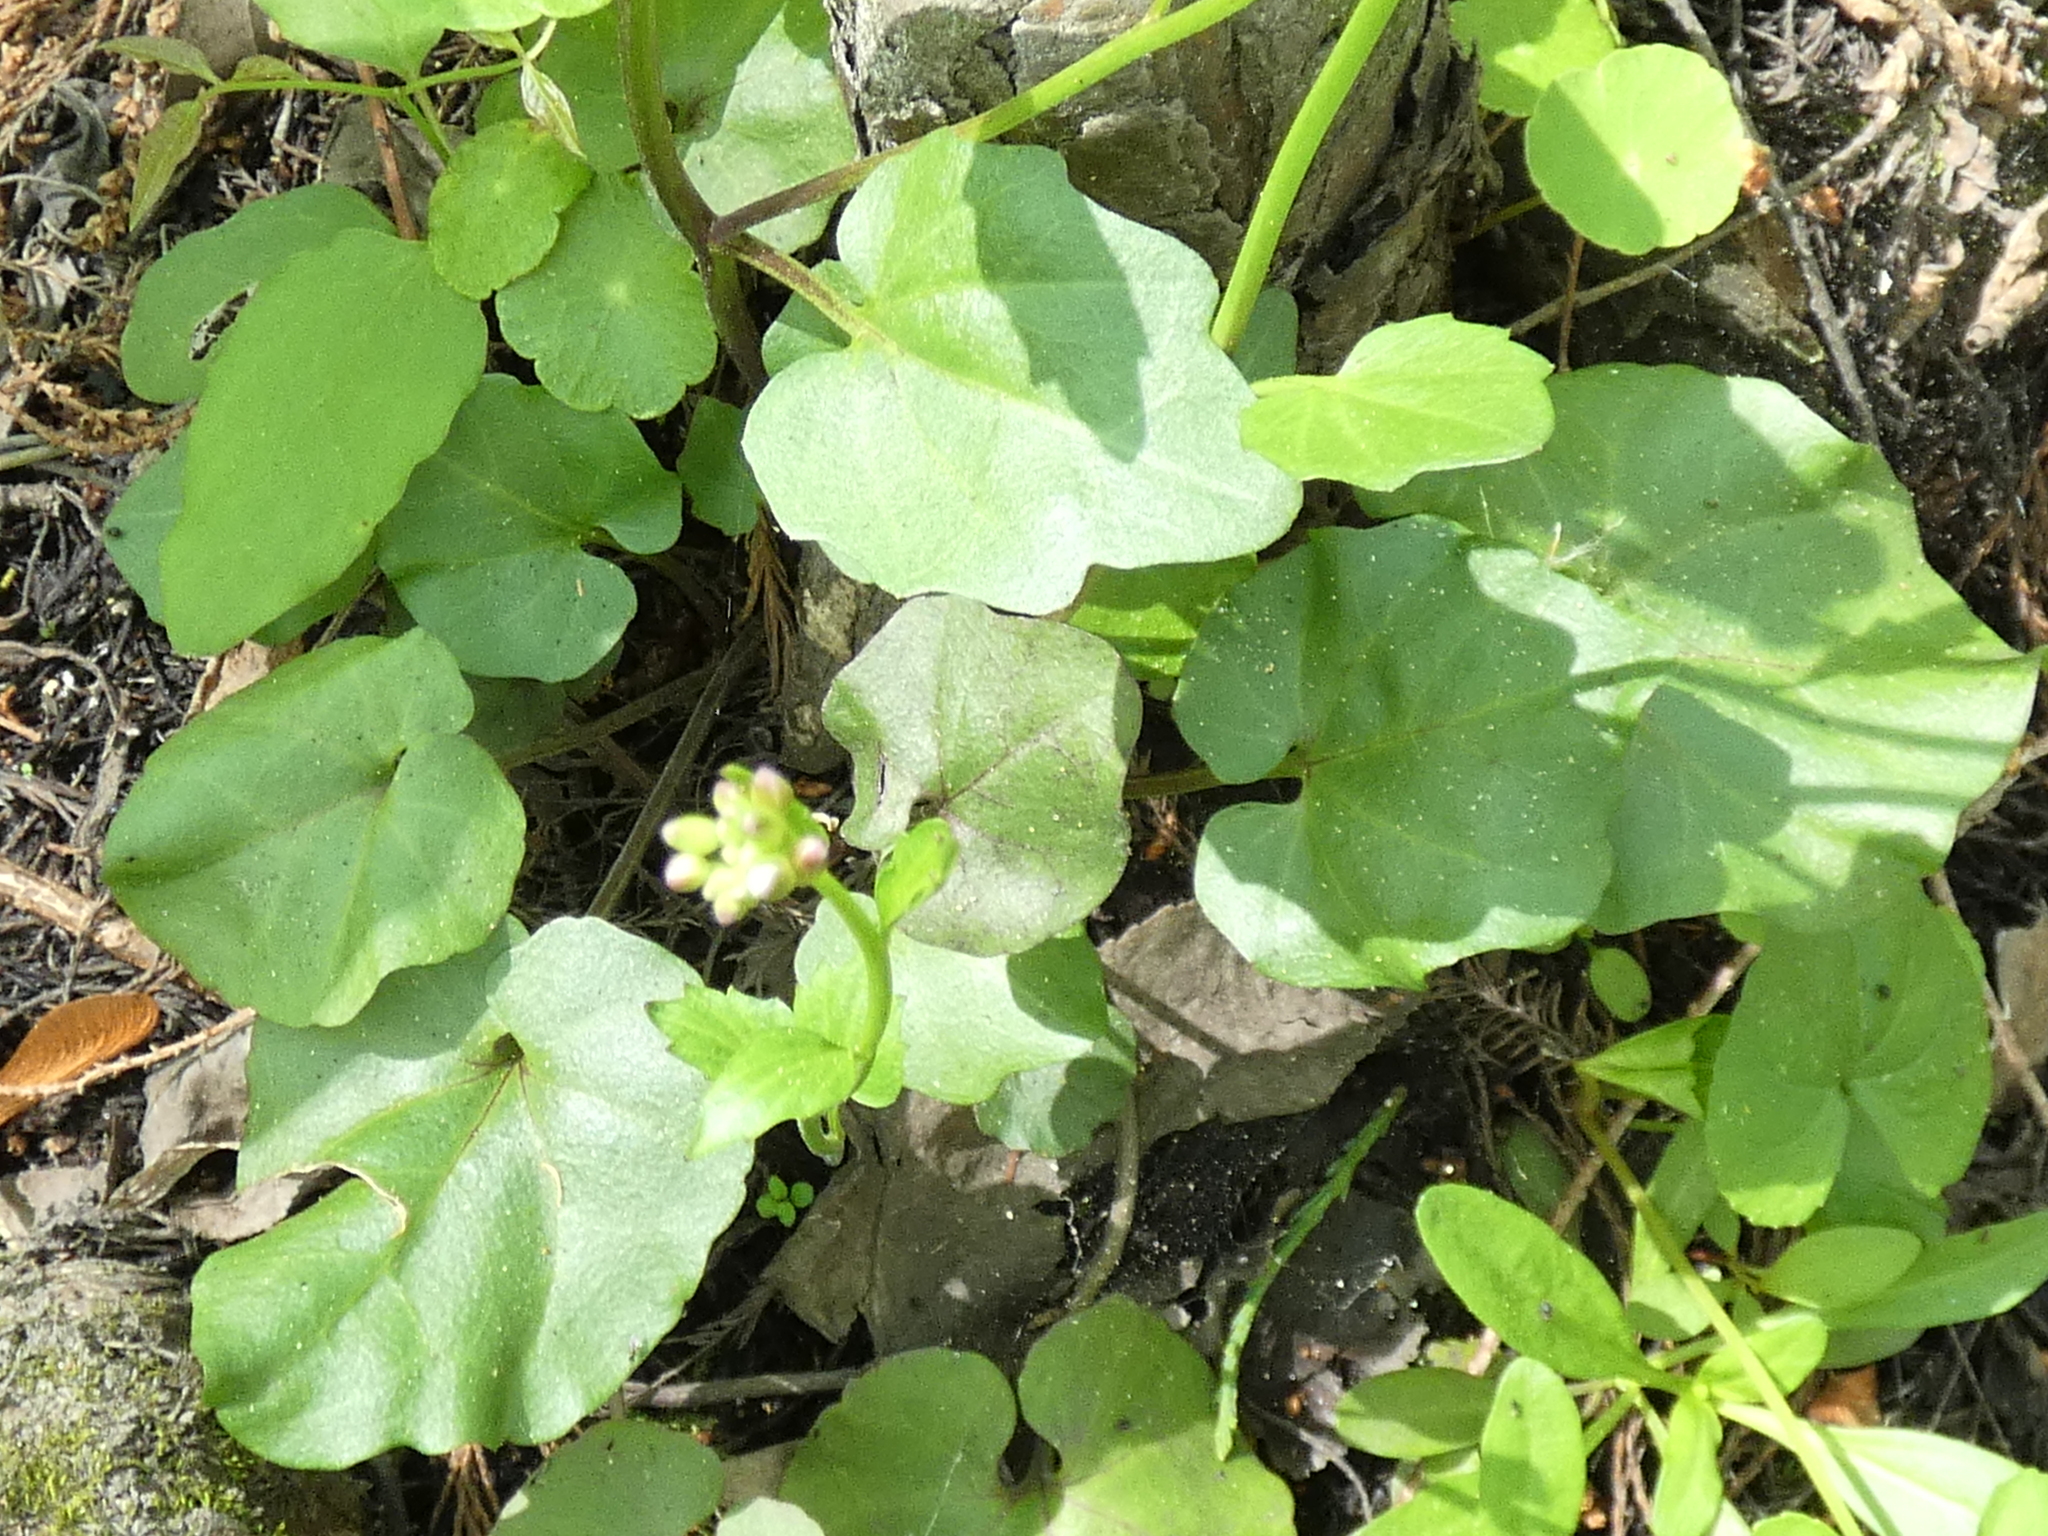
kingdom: Plantae
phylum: Tracheophyta
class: Magnoliopsida
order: Brassicales
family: Brassicaceae
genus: Cardamine
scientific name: Cardamine bulbosa
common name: Spring cress
